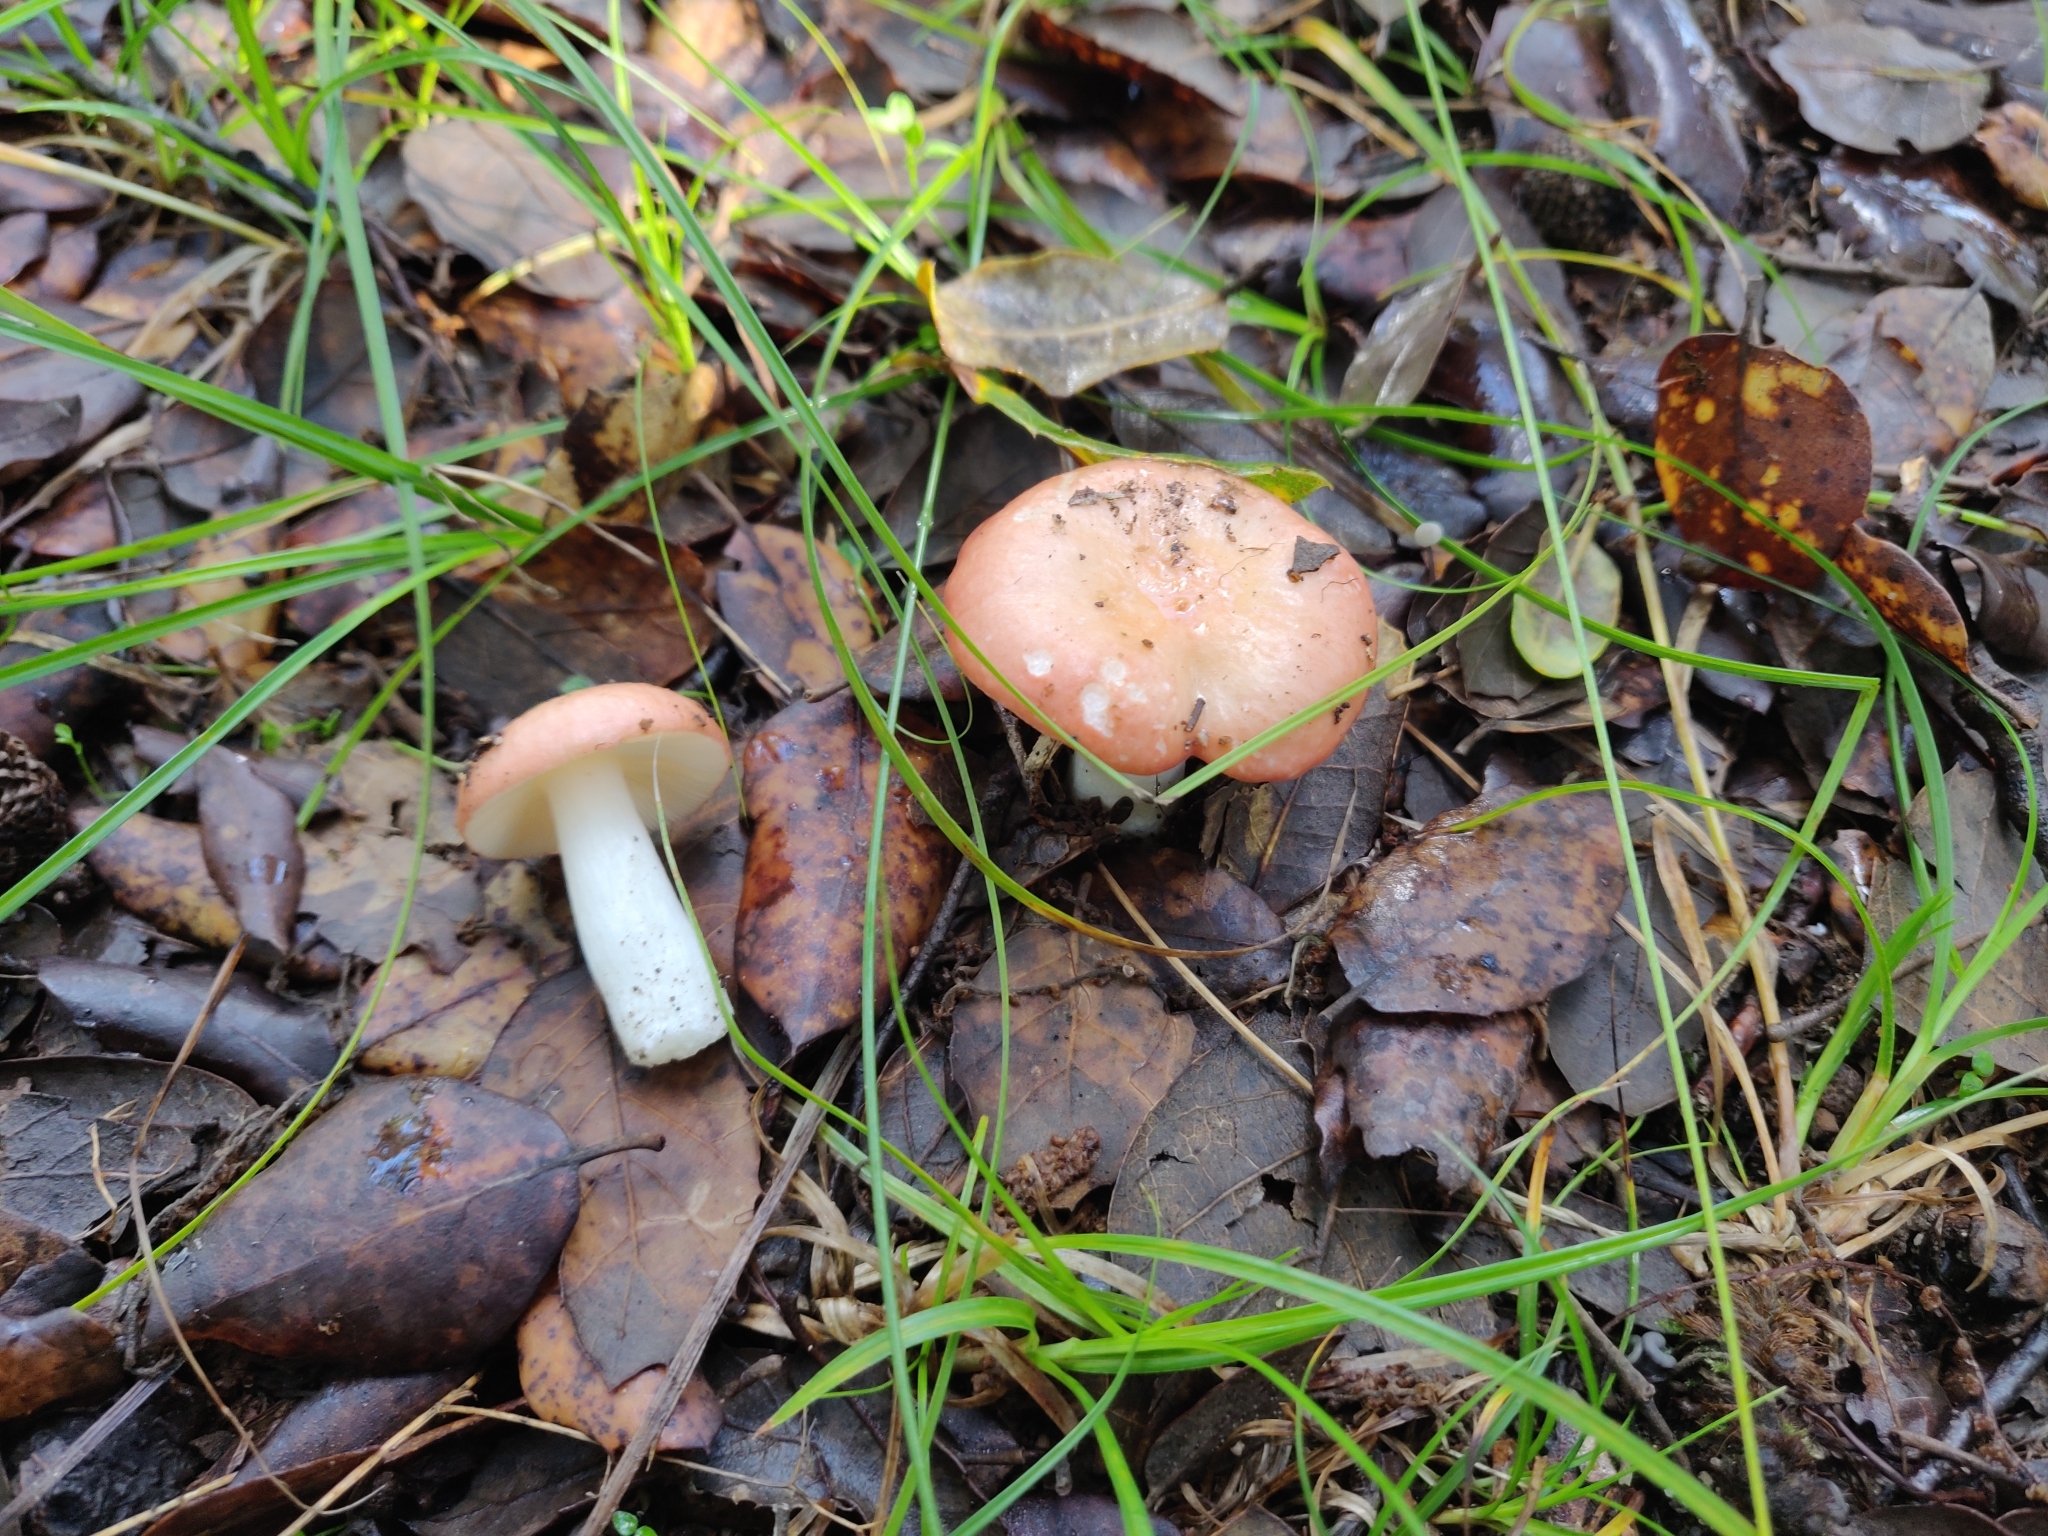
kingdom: Fungi
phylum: Basidiomycota
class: Agaricomycetes
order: Russulales
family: Russulaceae
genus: Russula
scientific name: Russula decipiens
